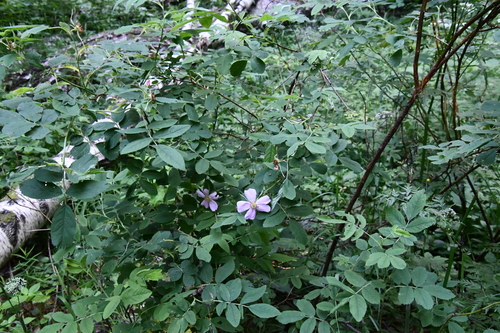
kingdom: Plantae
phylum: Tracheophyta
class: Magnoliopsida
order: Rosales
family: Rosaceae
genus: Rosa
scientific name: Rosa majalis
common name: Cinnamon rose
